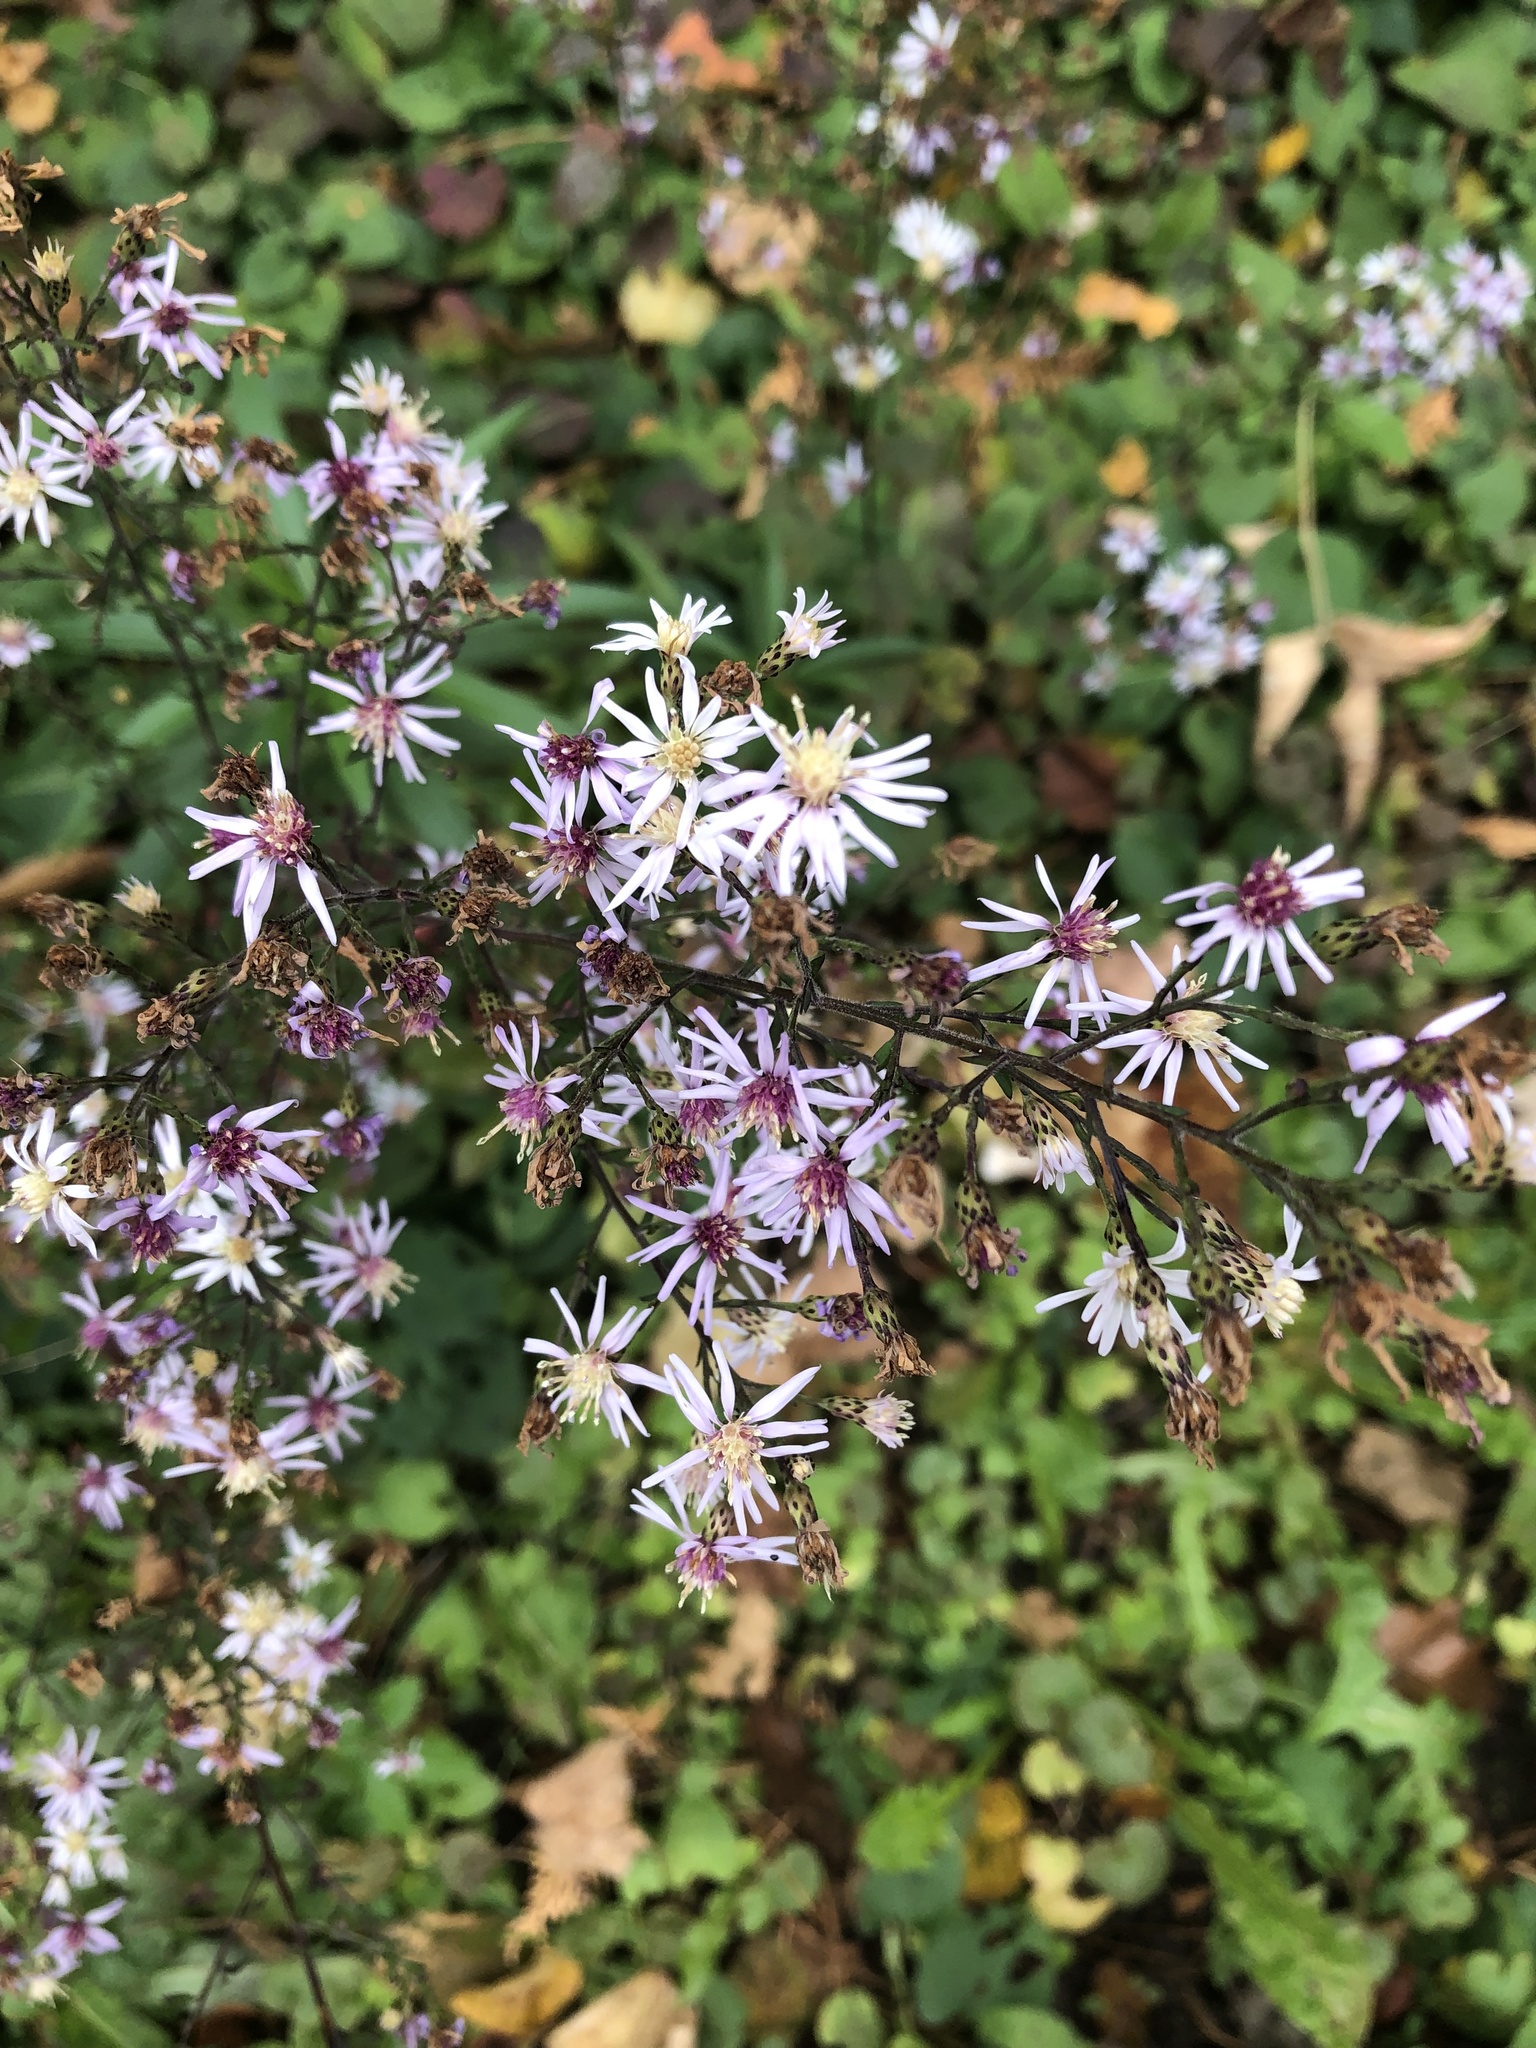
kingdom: Plantae
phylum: Tracheophyta
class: Magnoliopsida
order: Asterales
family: Asteraceae
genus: Symphyotrichum
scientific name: Symphyotrichum cordifolium
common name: Beeweed
